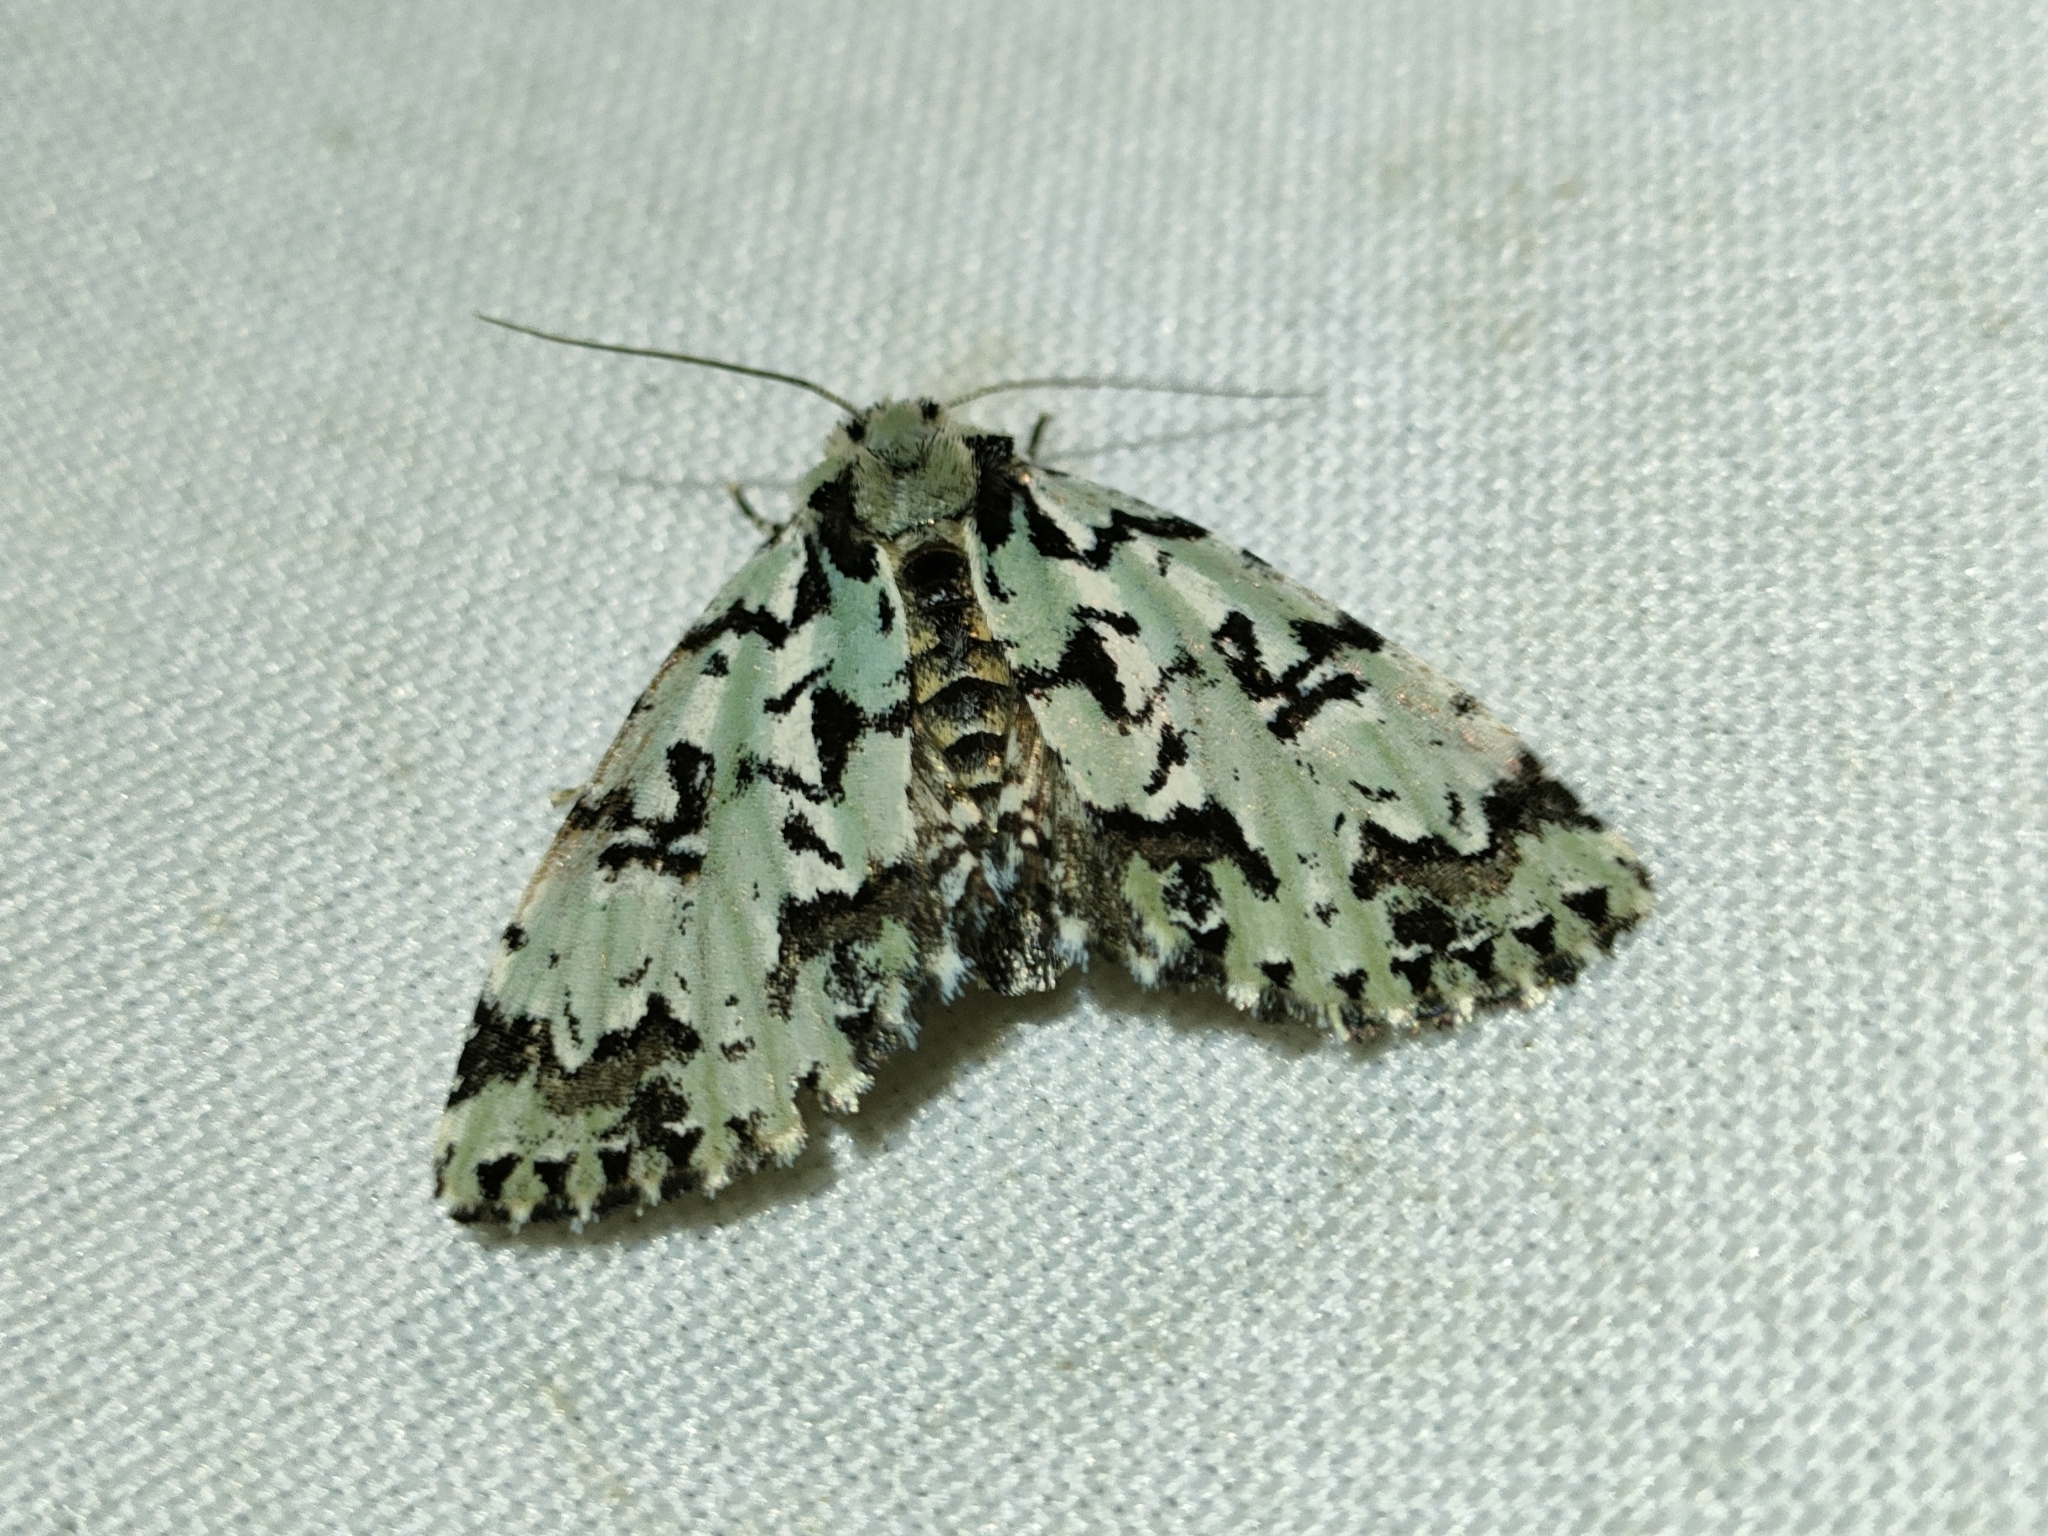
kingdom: Animalia
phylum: Arthropoda
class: Insecta
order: Lepidoptera
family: Noctuidae
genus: Moma
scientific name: Moma alpium
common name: Scarce merveille du jour
